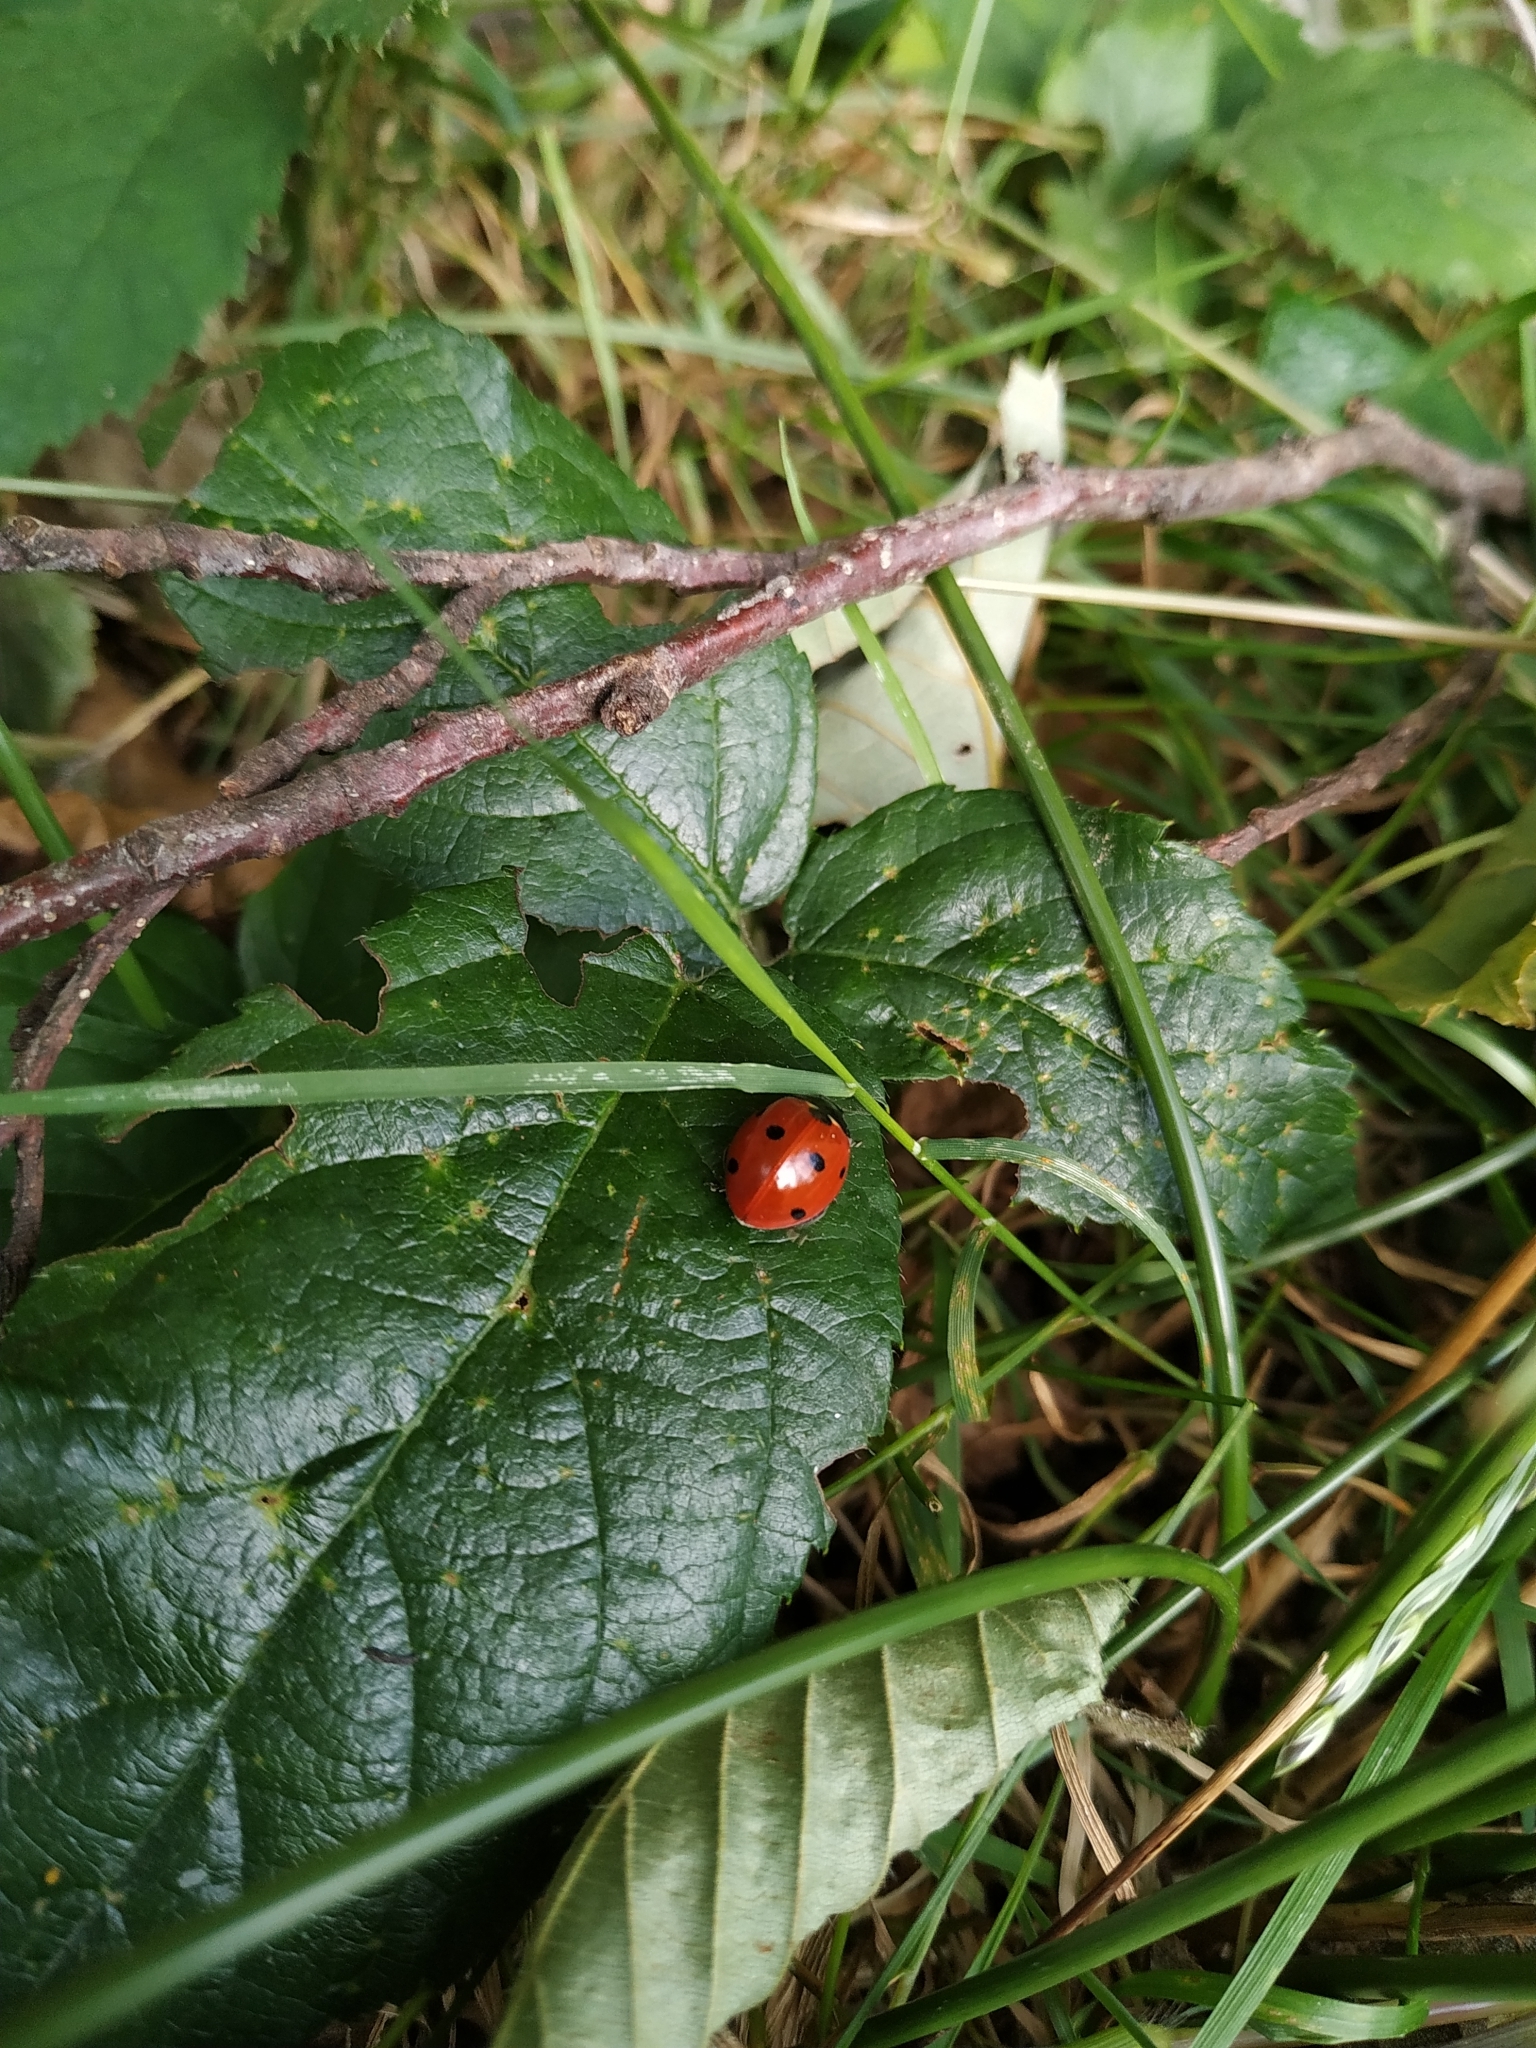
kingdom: Animalia
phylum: Arthropoda
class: Insecta
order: Coleoptera
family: Coccinellidae
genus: Coccinella
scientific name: Coccinella septempunctata
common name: Sevenspotted lady beetle
